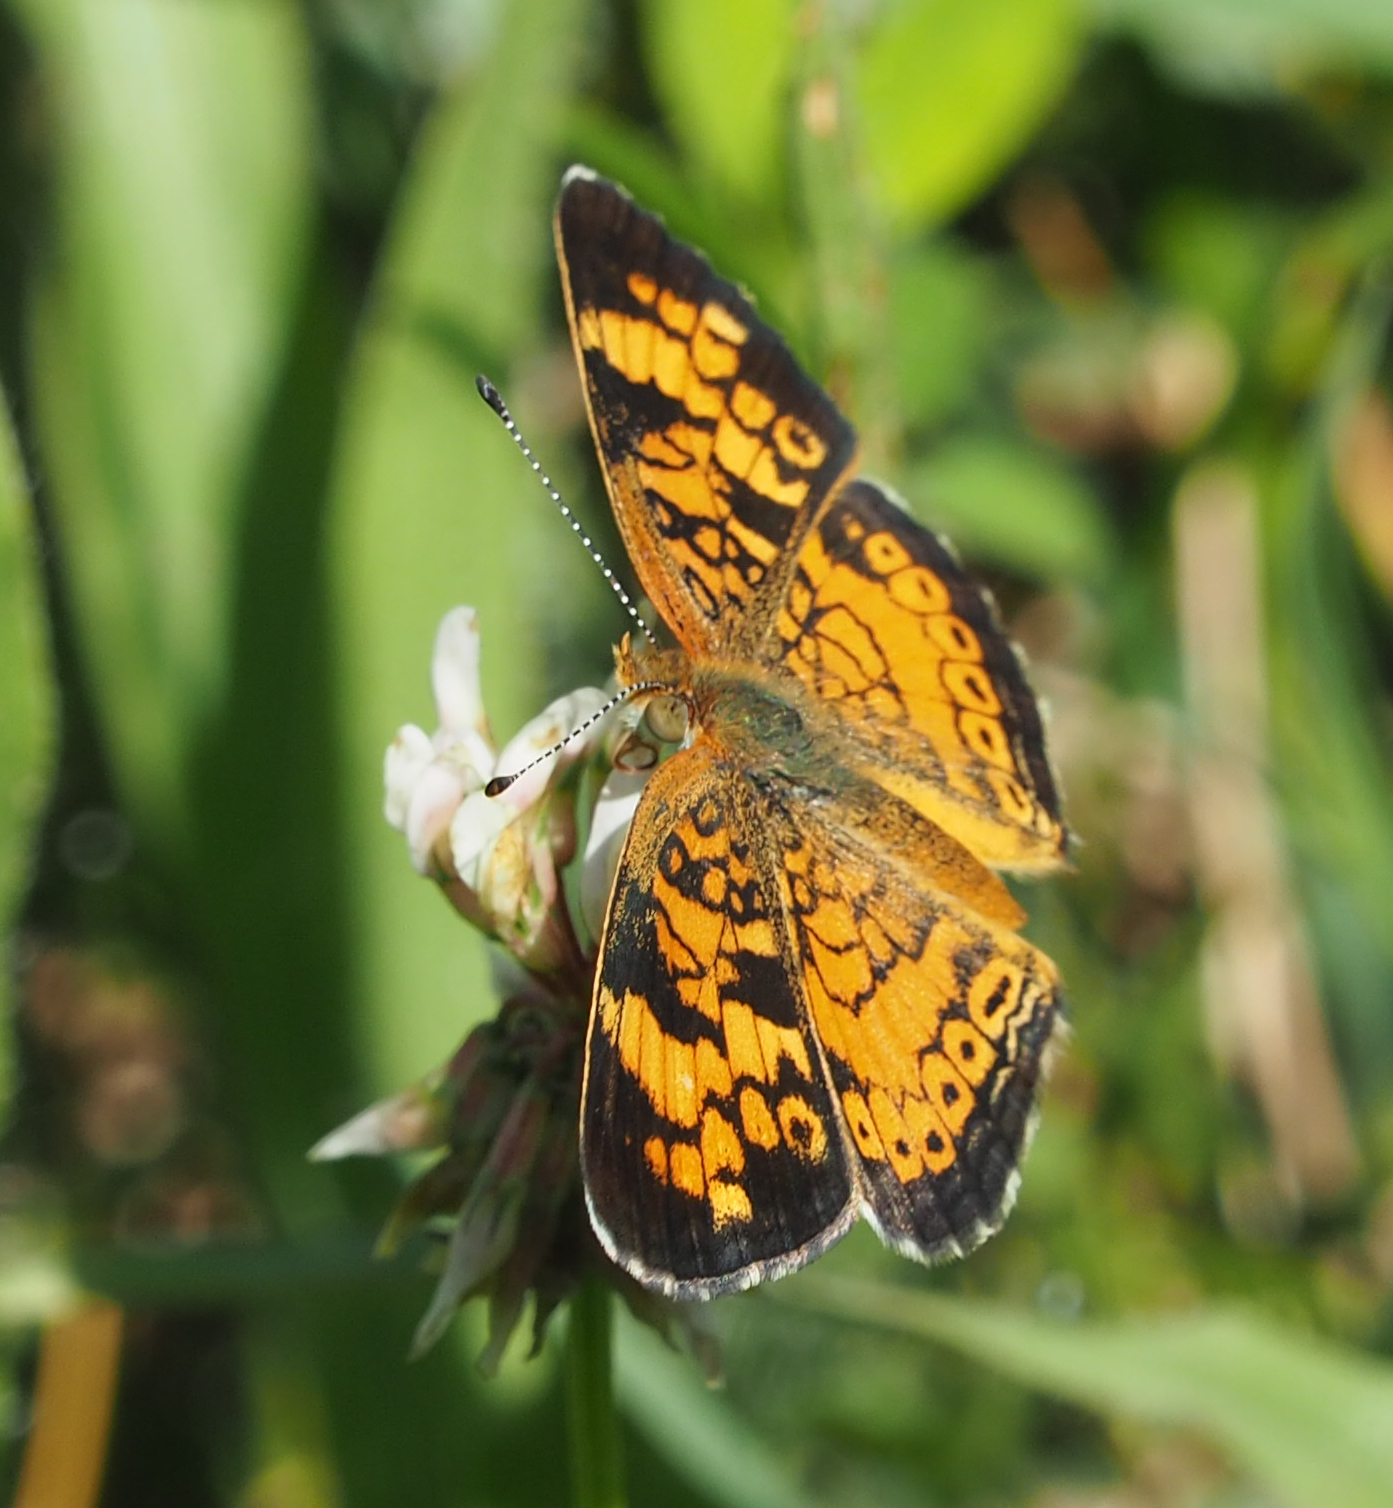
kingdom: Animalia
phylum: Arthropoda
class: Insecta
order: Lepidoptera
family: Nymphalidae
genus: Phyciodes
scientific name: Phyciodes tharos
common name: Pearl crescent
